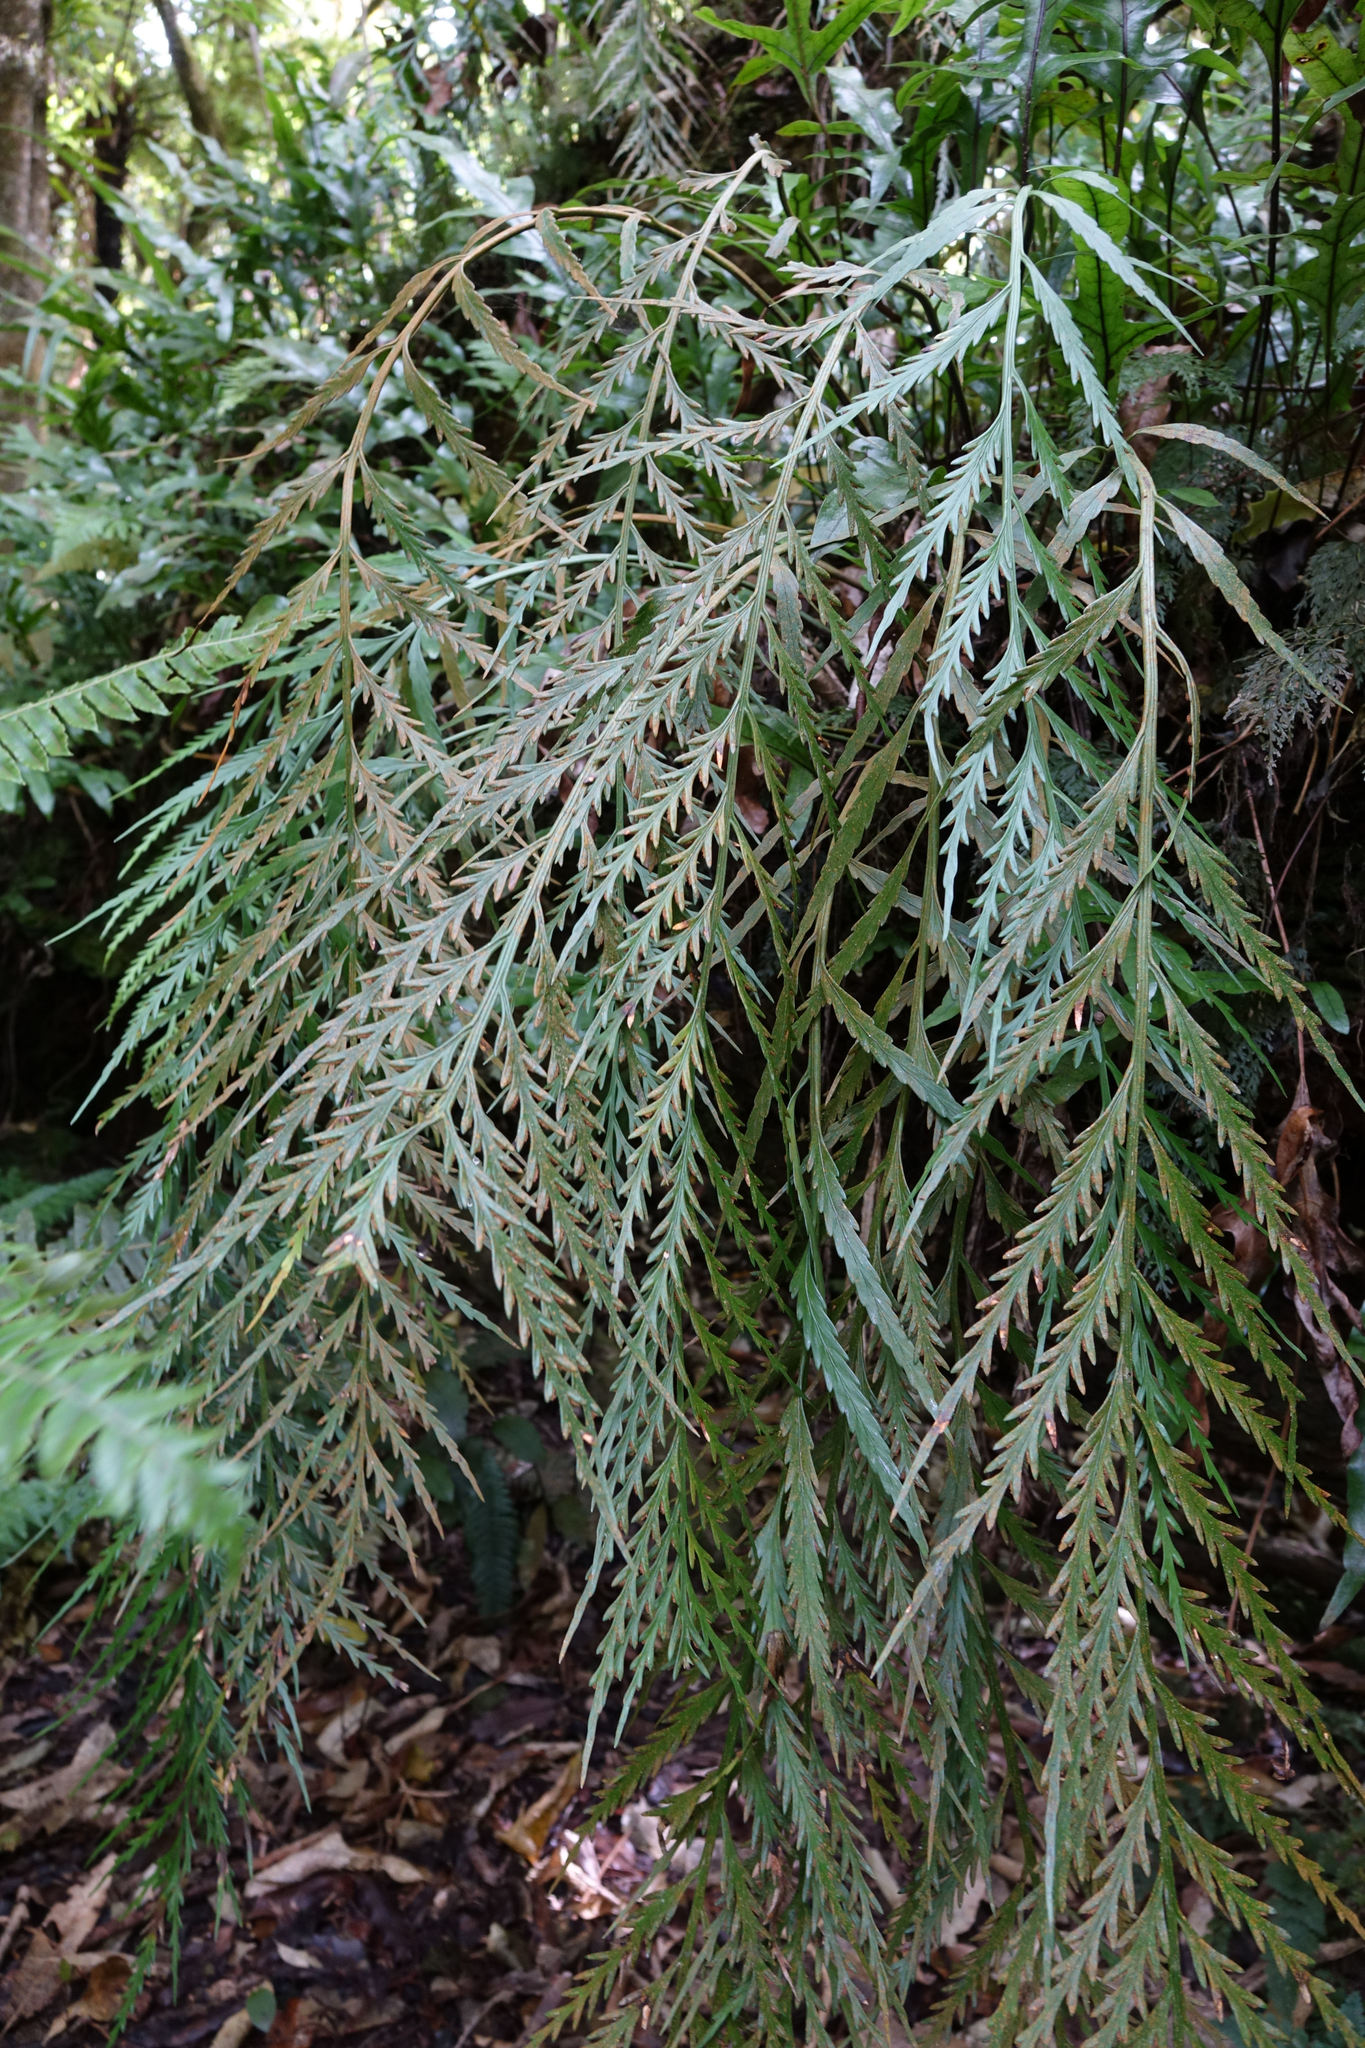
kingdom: Plantae
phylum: Tracheophyta
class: Polypodiopsida
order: Polypodiales
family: Aspleniaceae
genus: Asplenium
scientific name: Asplenium flaccidum
